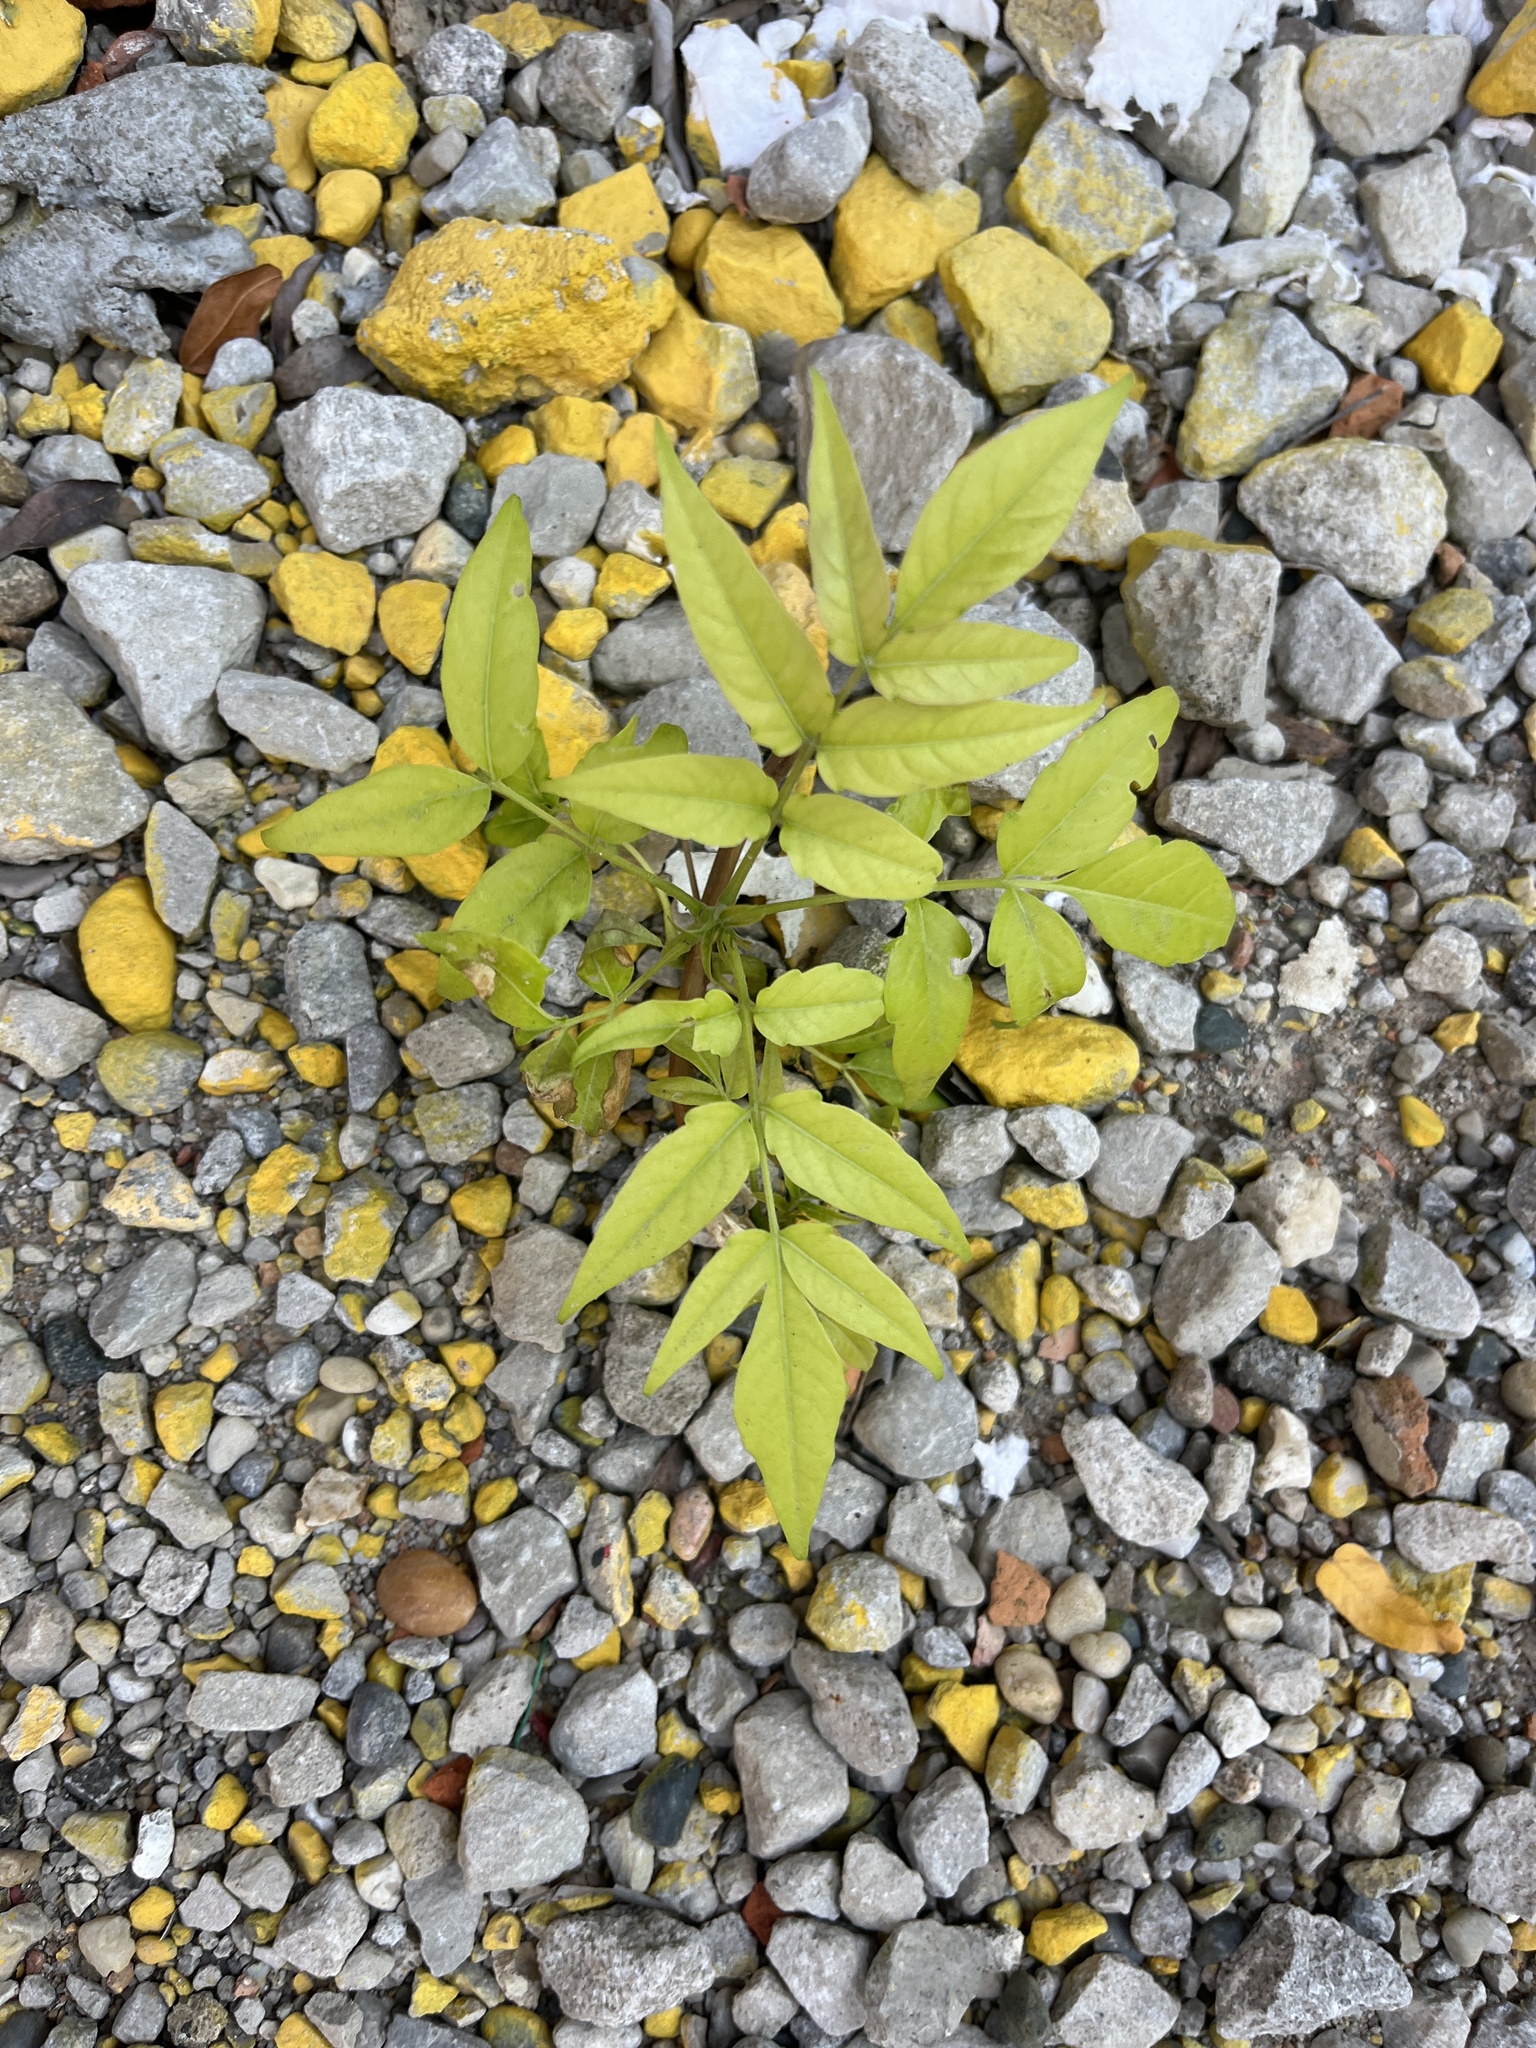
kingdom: Plantae
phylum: Tracheophyta
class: Magnoliopsida
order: Sapindales
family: Simaroubaceae
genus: Ailanthus
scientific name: Ailanthus altissima
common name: Tree-of-heaven
